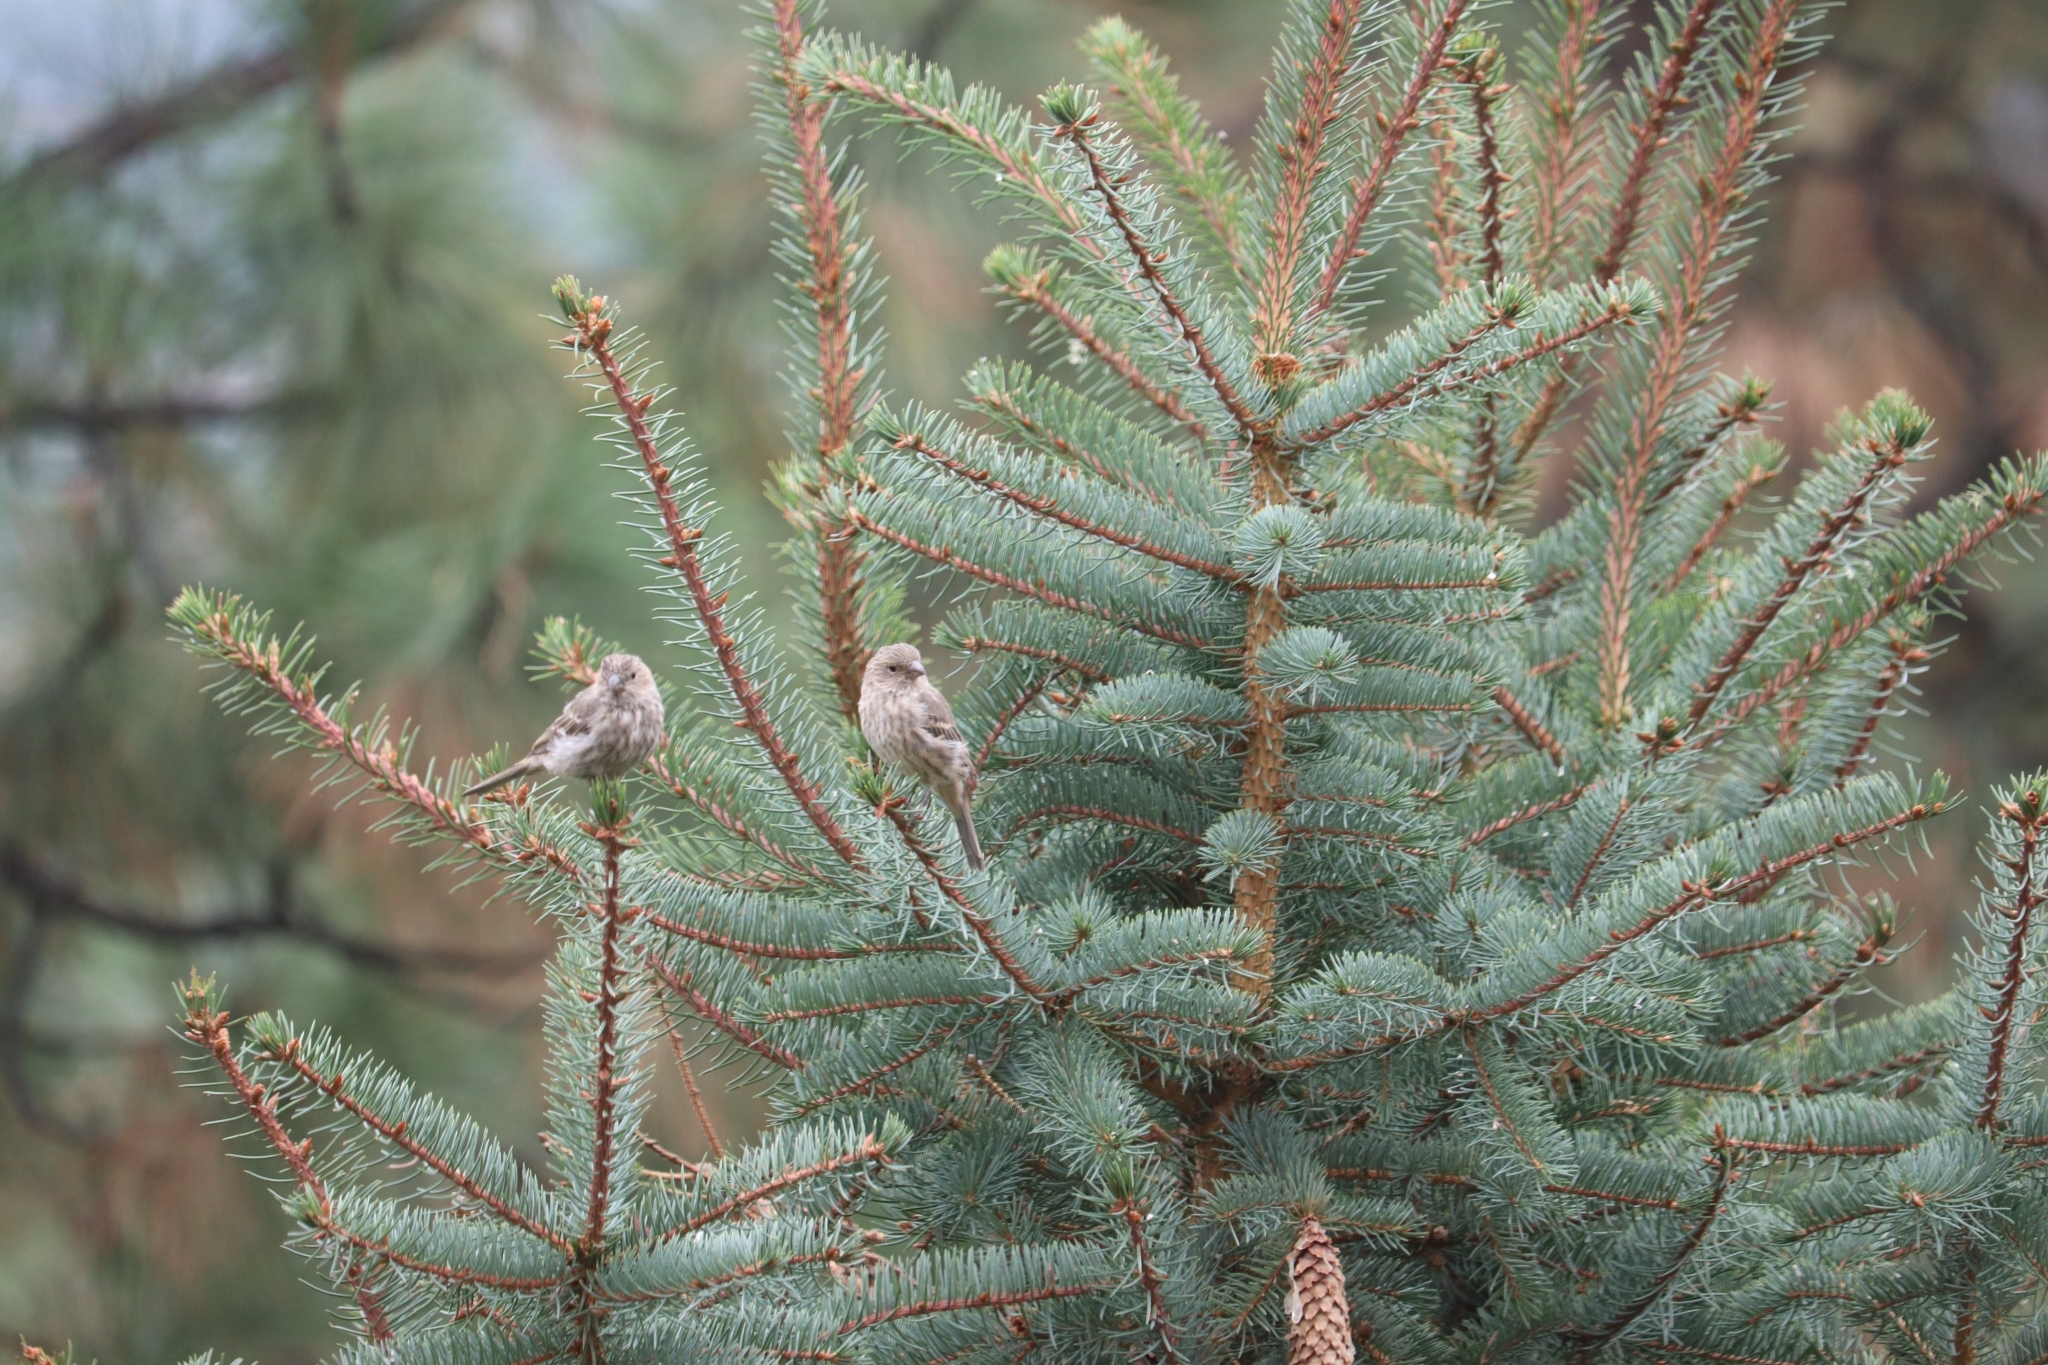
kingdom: Animalia
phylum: Chordata
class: Aves
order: Passeriformes
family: Fringillidae
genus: Haemorhous
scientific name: Haemorhous mexicanus
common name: House finch
